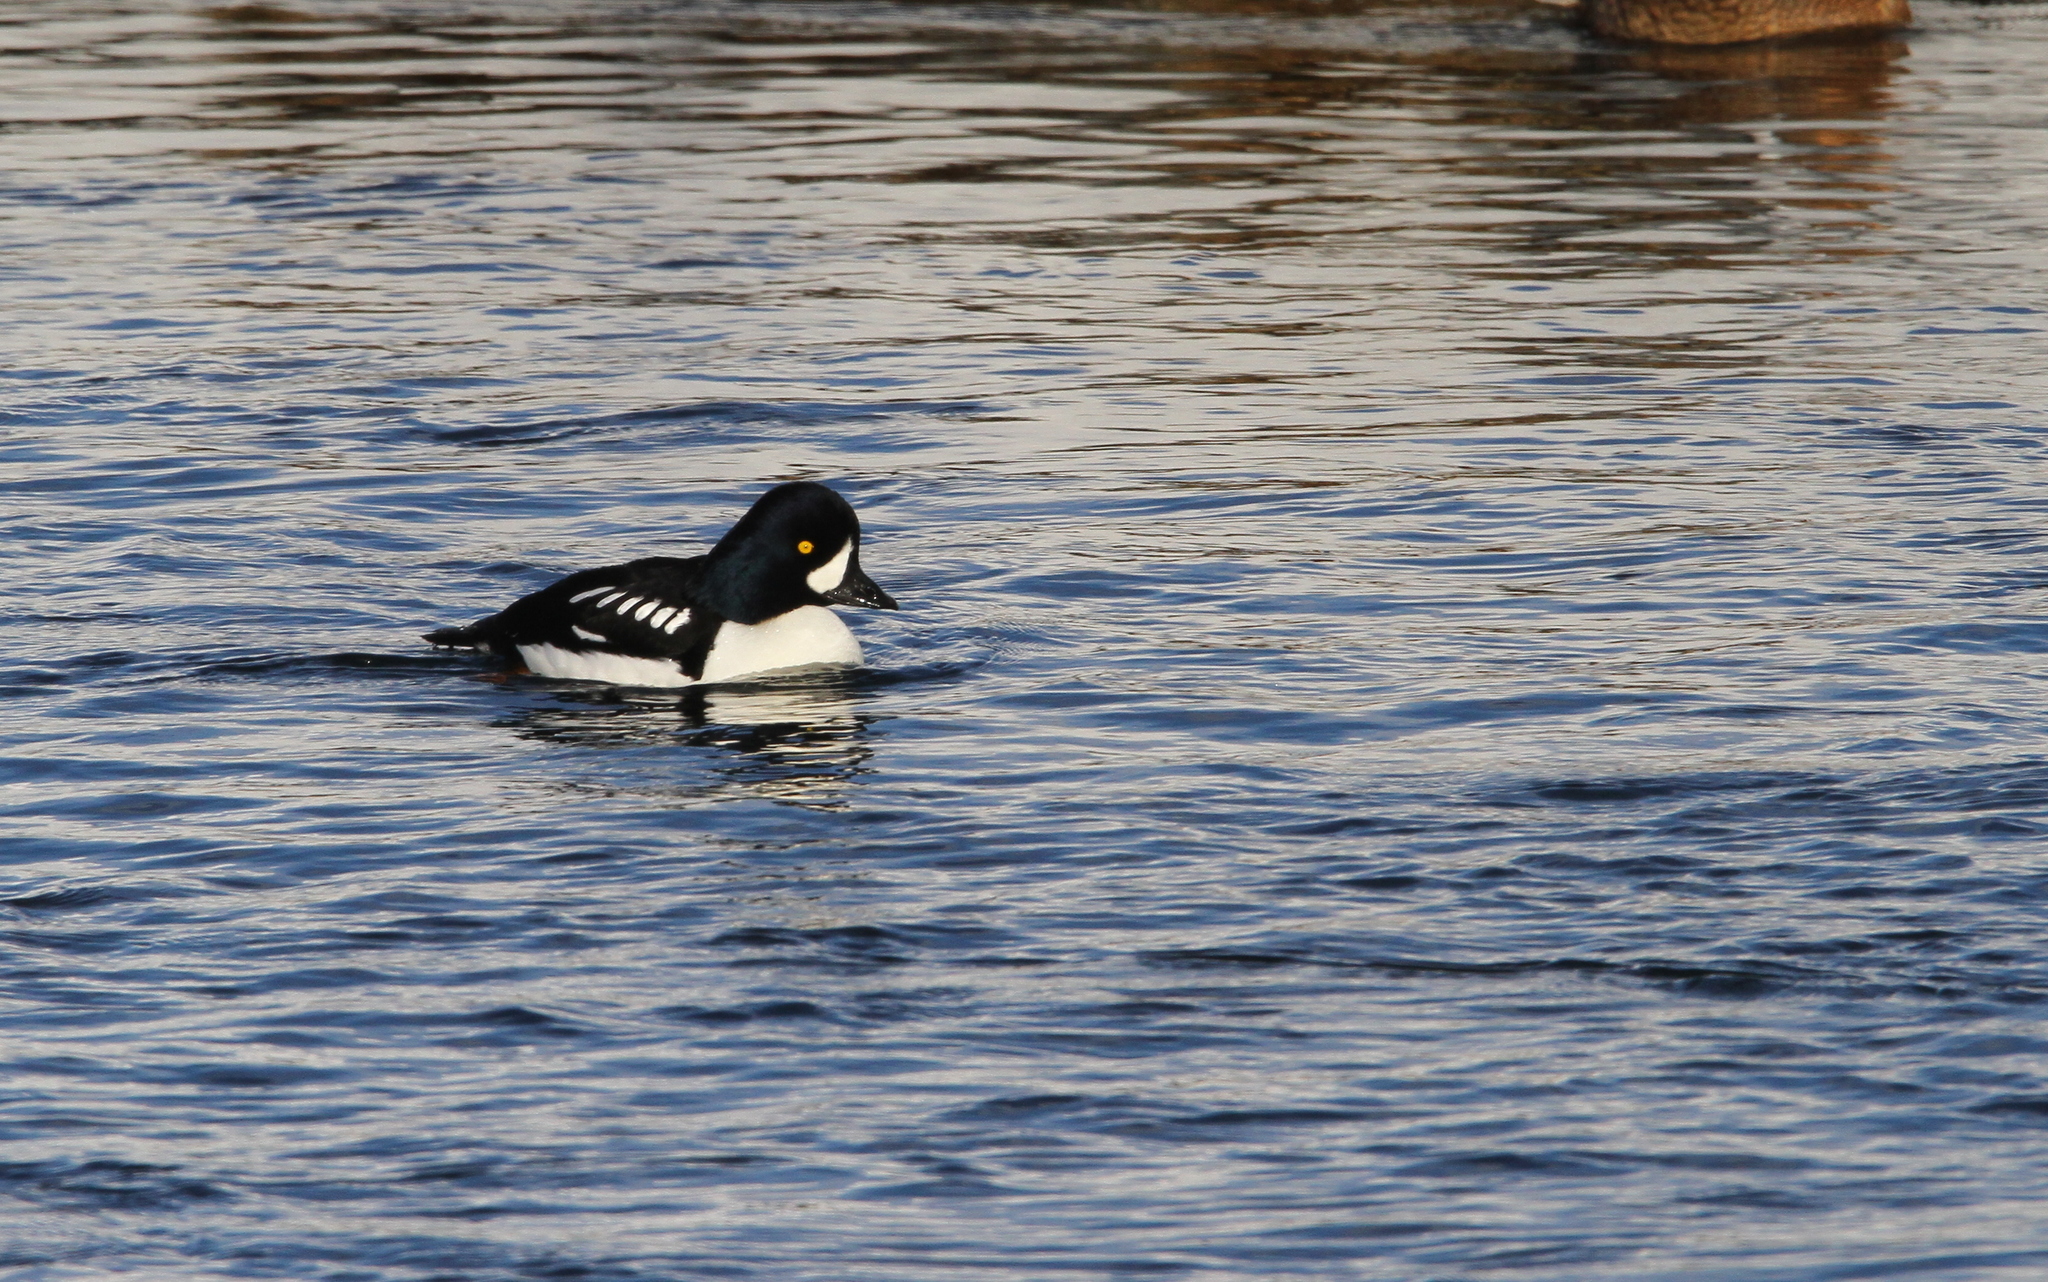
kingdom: Animalia
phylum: Chordata
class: Aves
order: Anseriformes
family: Anatidae
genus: Bucephala
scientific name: Bucephala islandica
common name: Barrow's goldeneye
